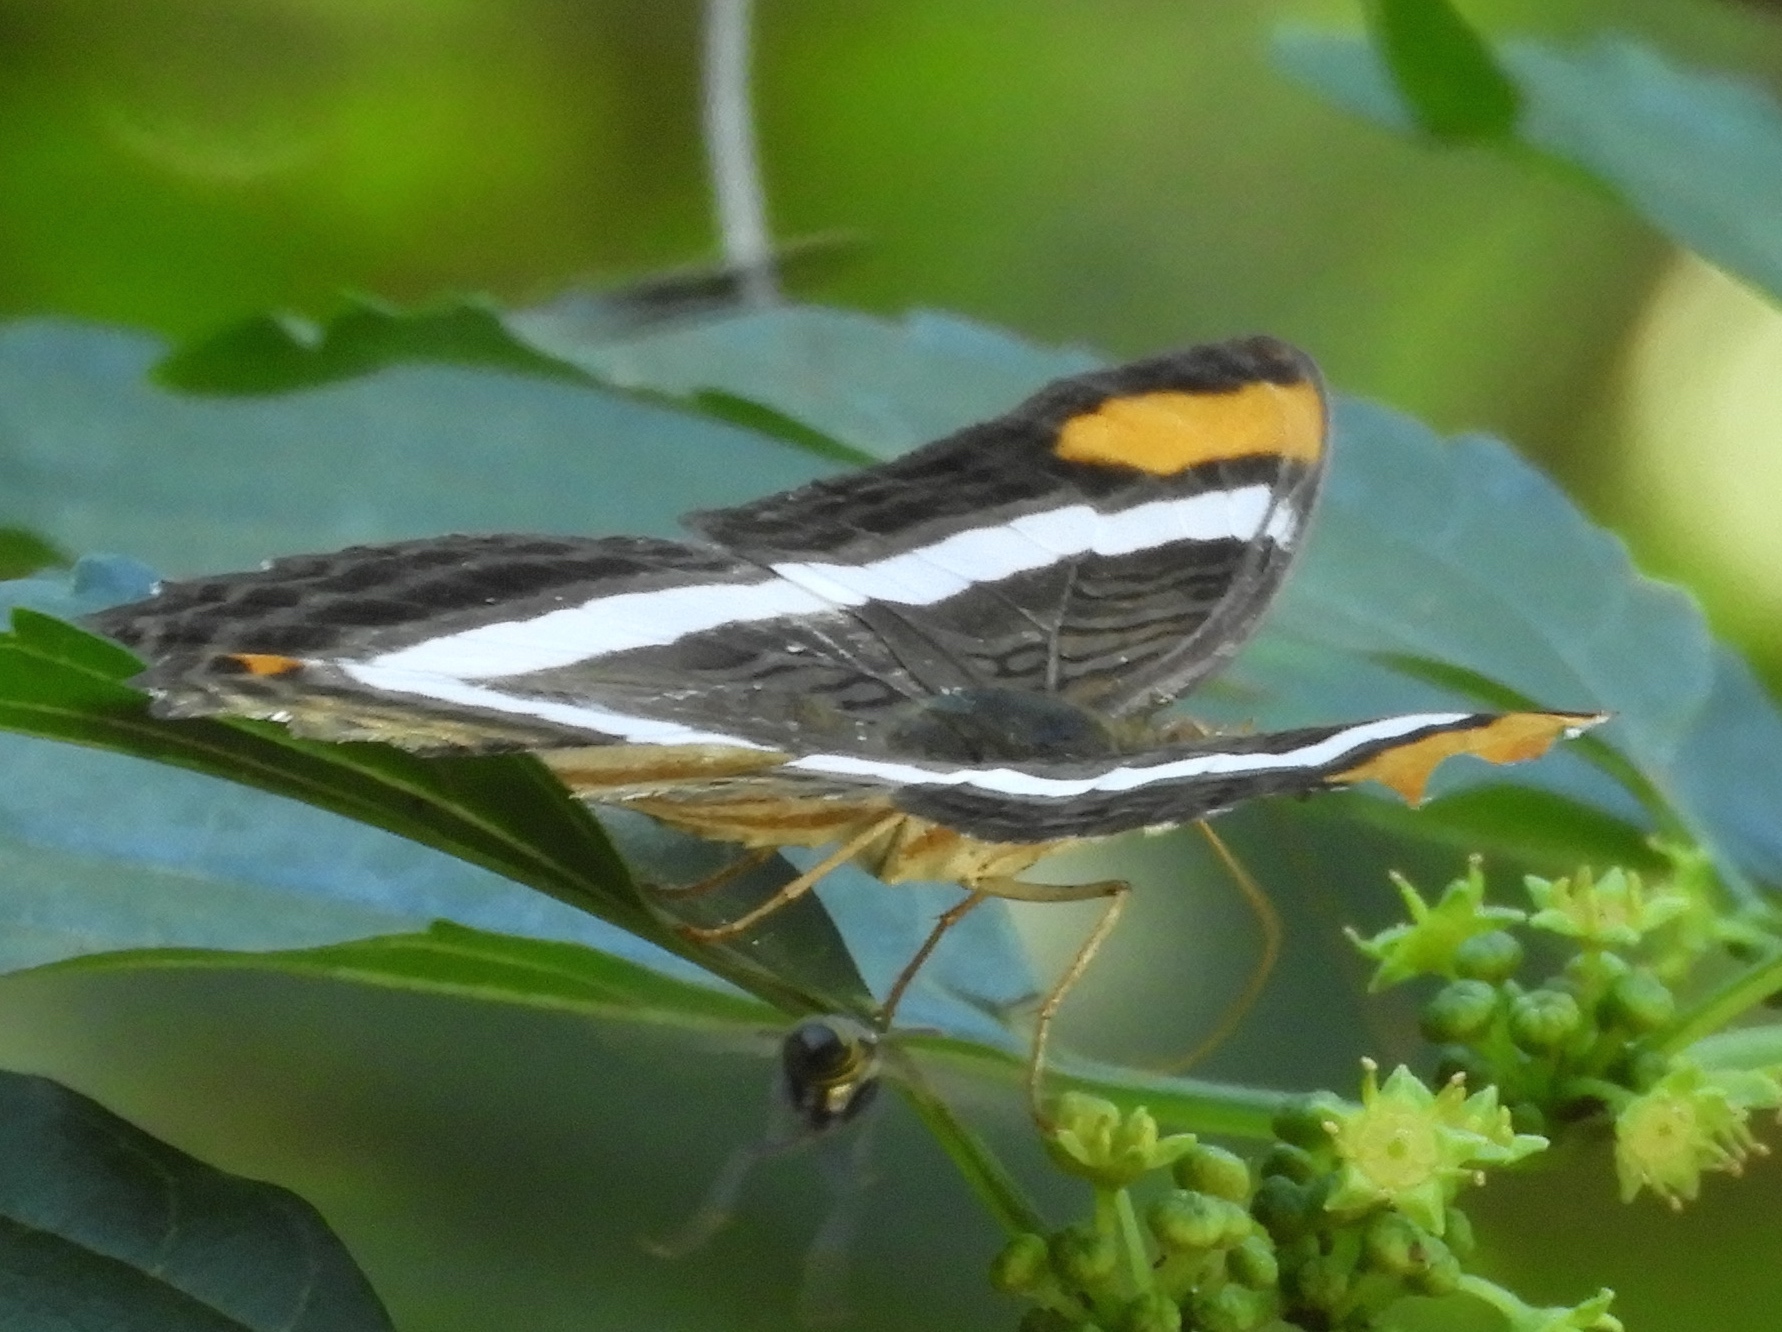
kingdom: Animalia
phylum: Arthropoda
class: Insecta
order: Lepidoptera
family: Nymphalidae
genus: Limenitis
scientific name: Limenitis fessonia
